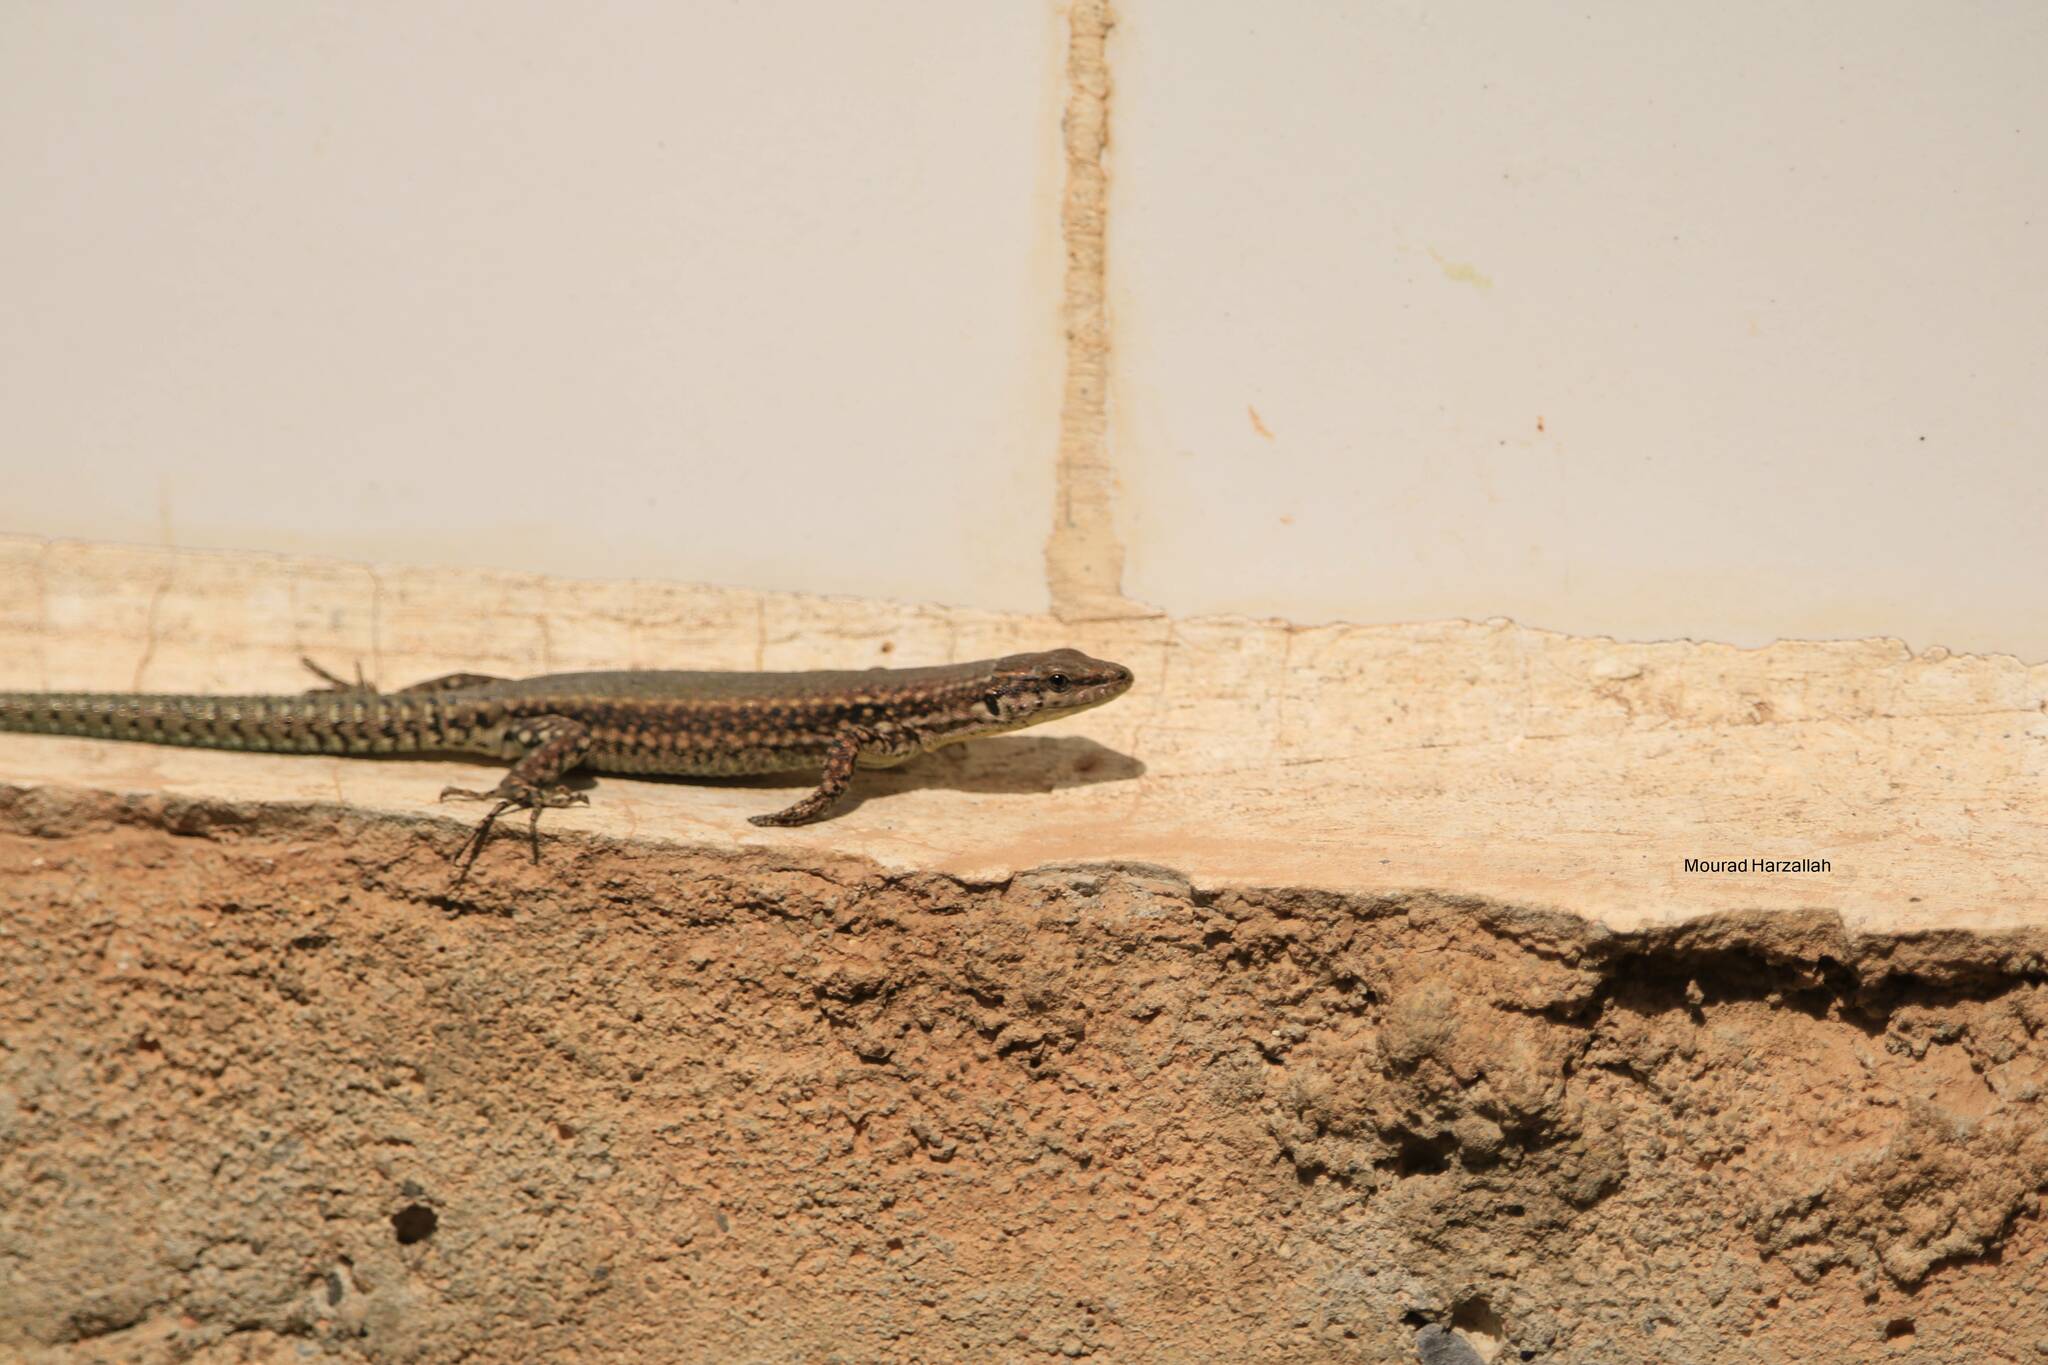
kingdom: Animalia
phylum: Chordata
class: Squamata
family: Lacertidae
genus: Podarcis
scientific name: Podarcis vaucheri
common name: Vaucher's wall lizard
